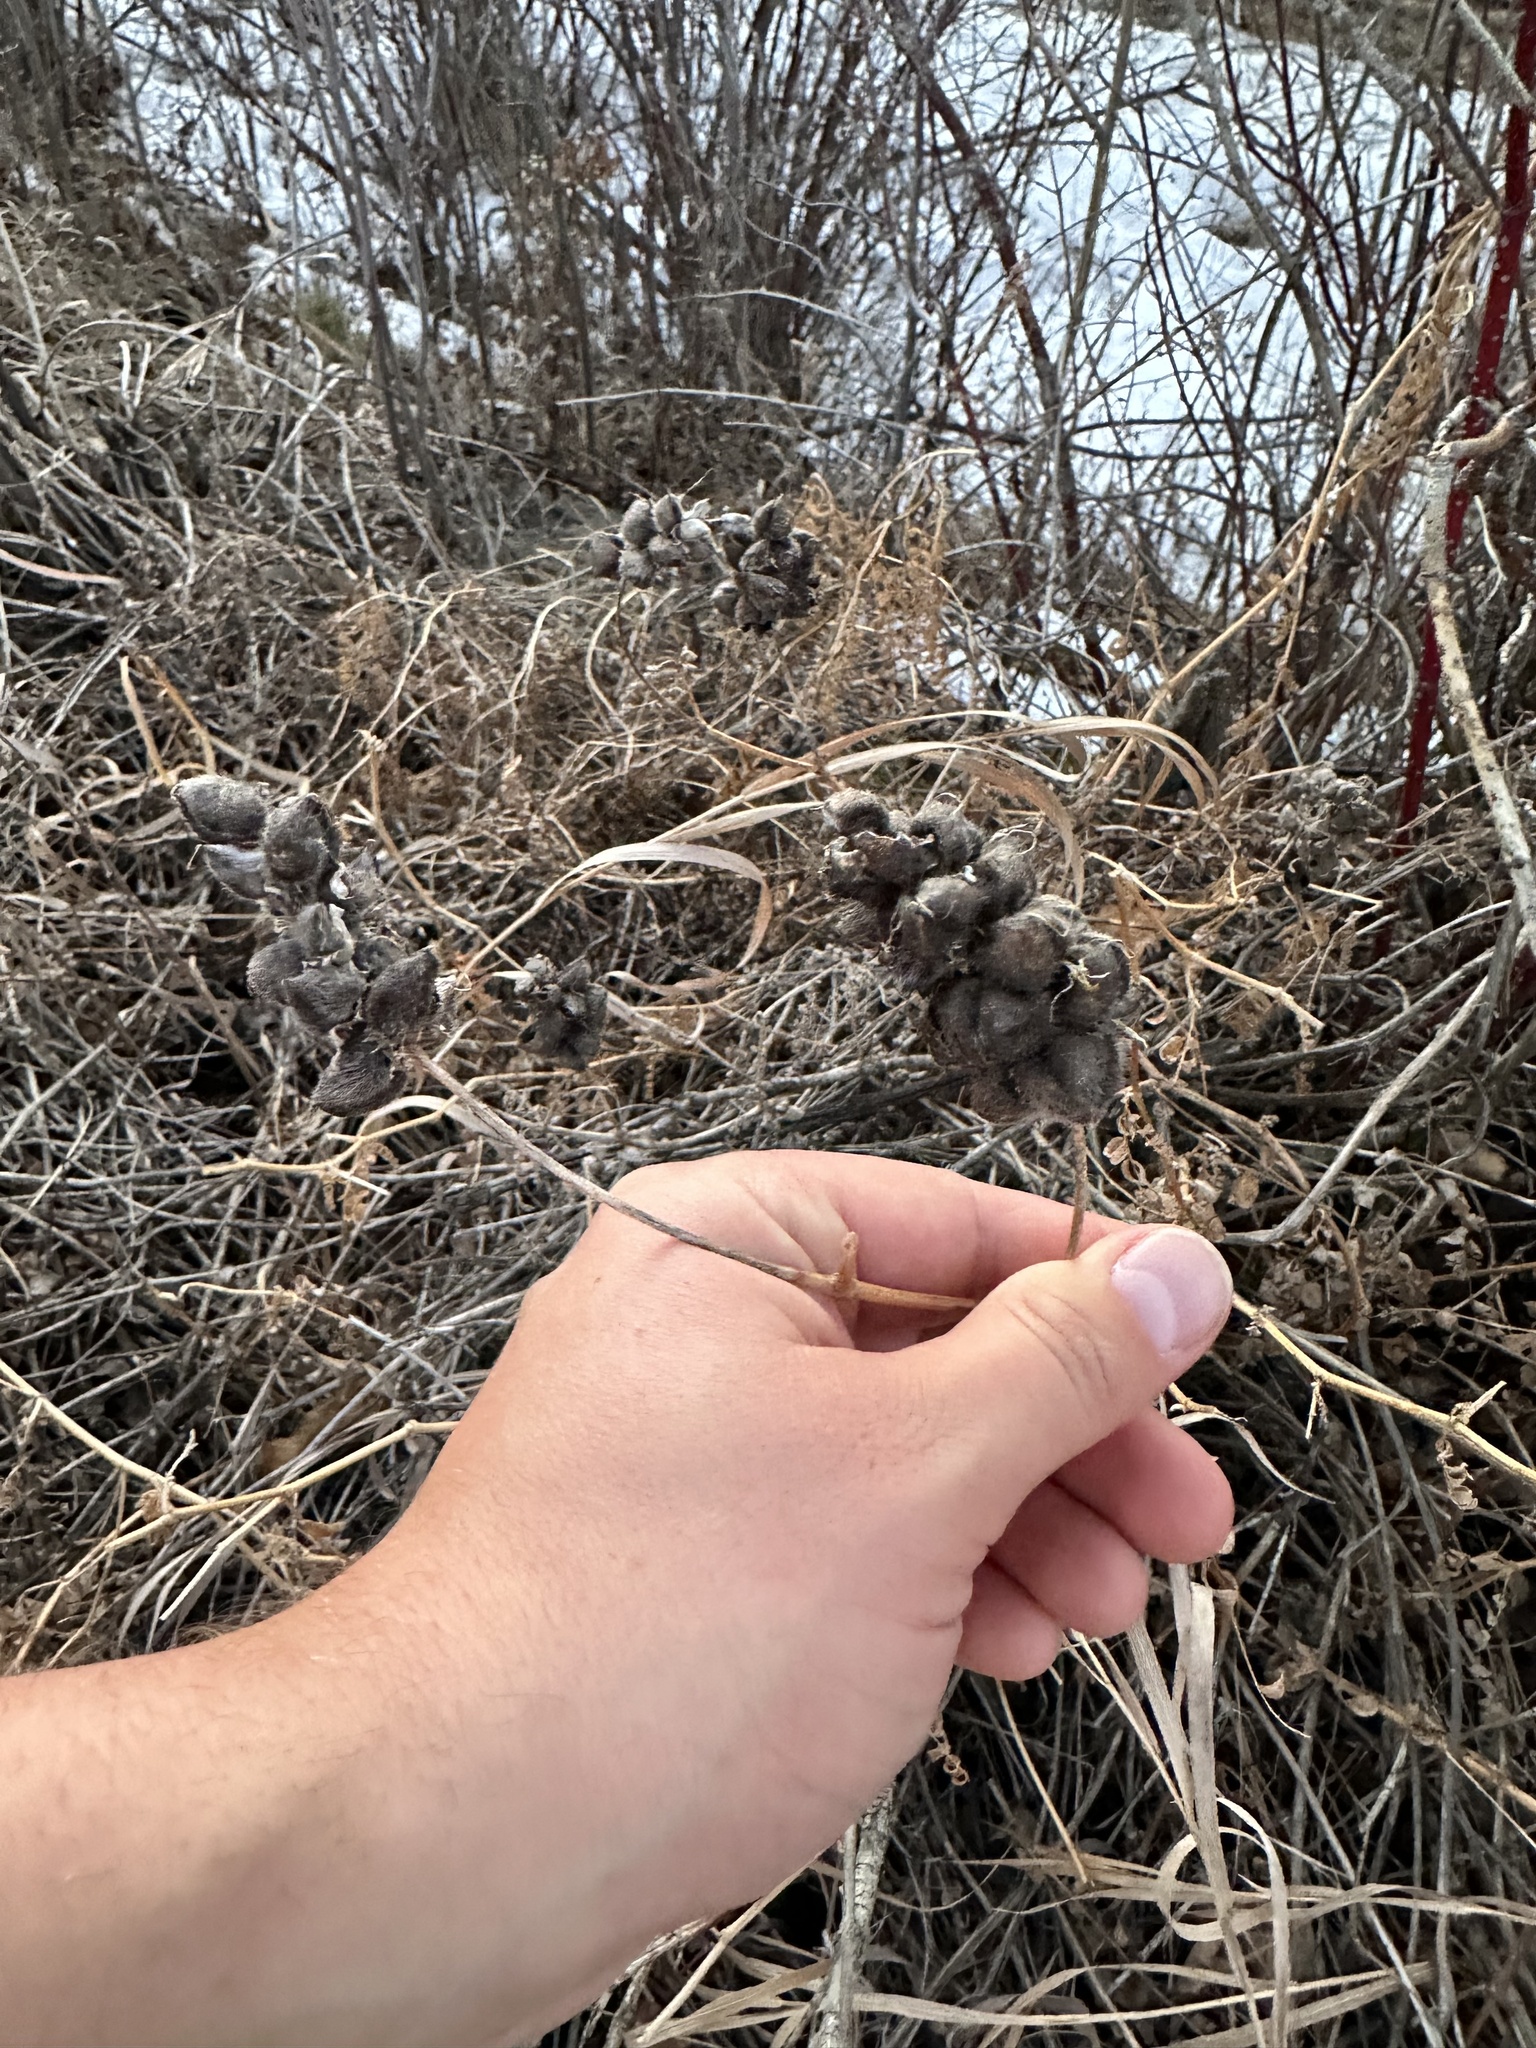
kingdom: Plantae
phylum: Tracheophyta
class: Magnoliopsida
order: Fabales
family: Fabaceae
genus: Astragalus
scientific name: Astragalus cicer
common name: Chick-pea milk-vetch
